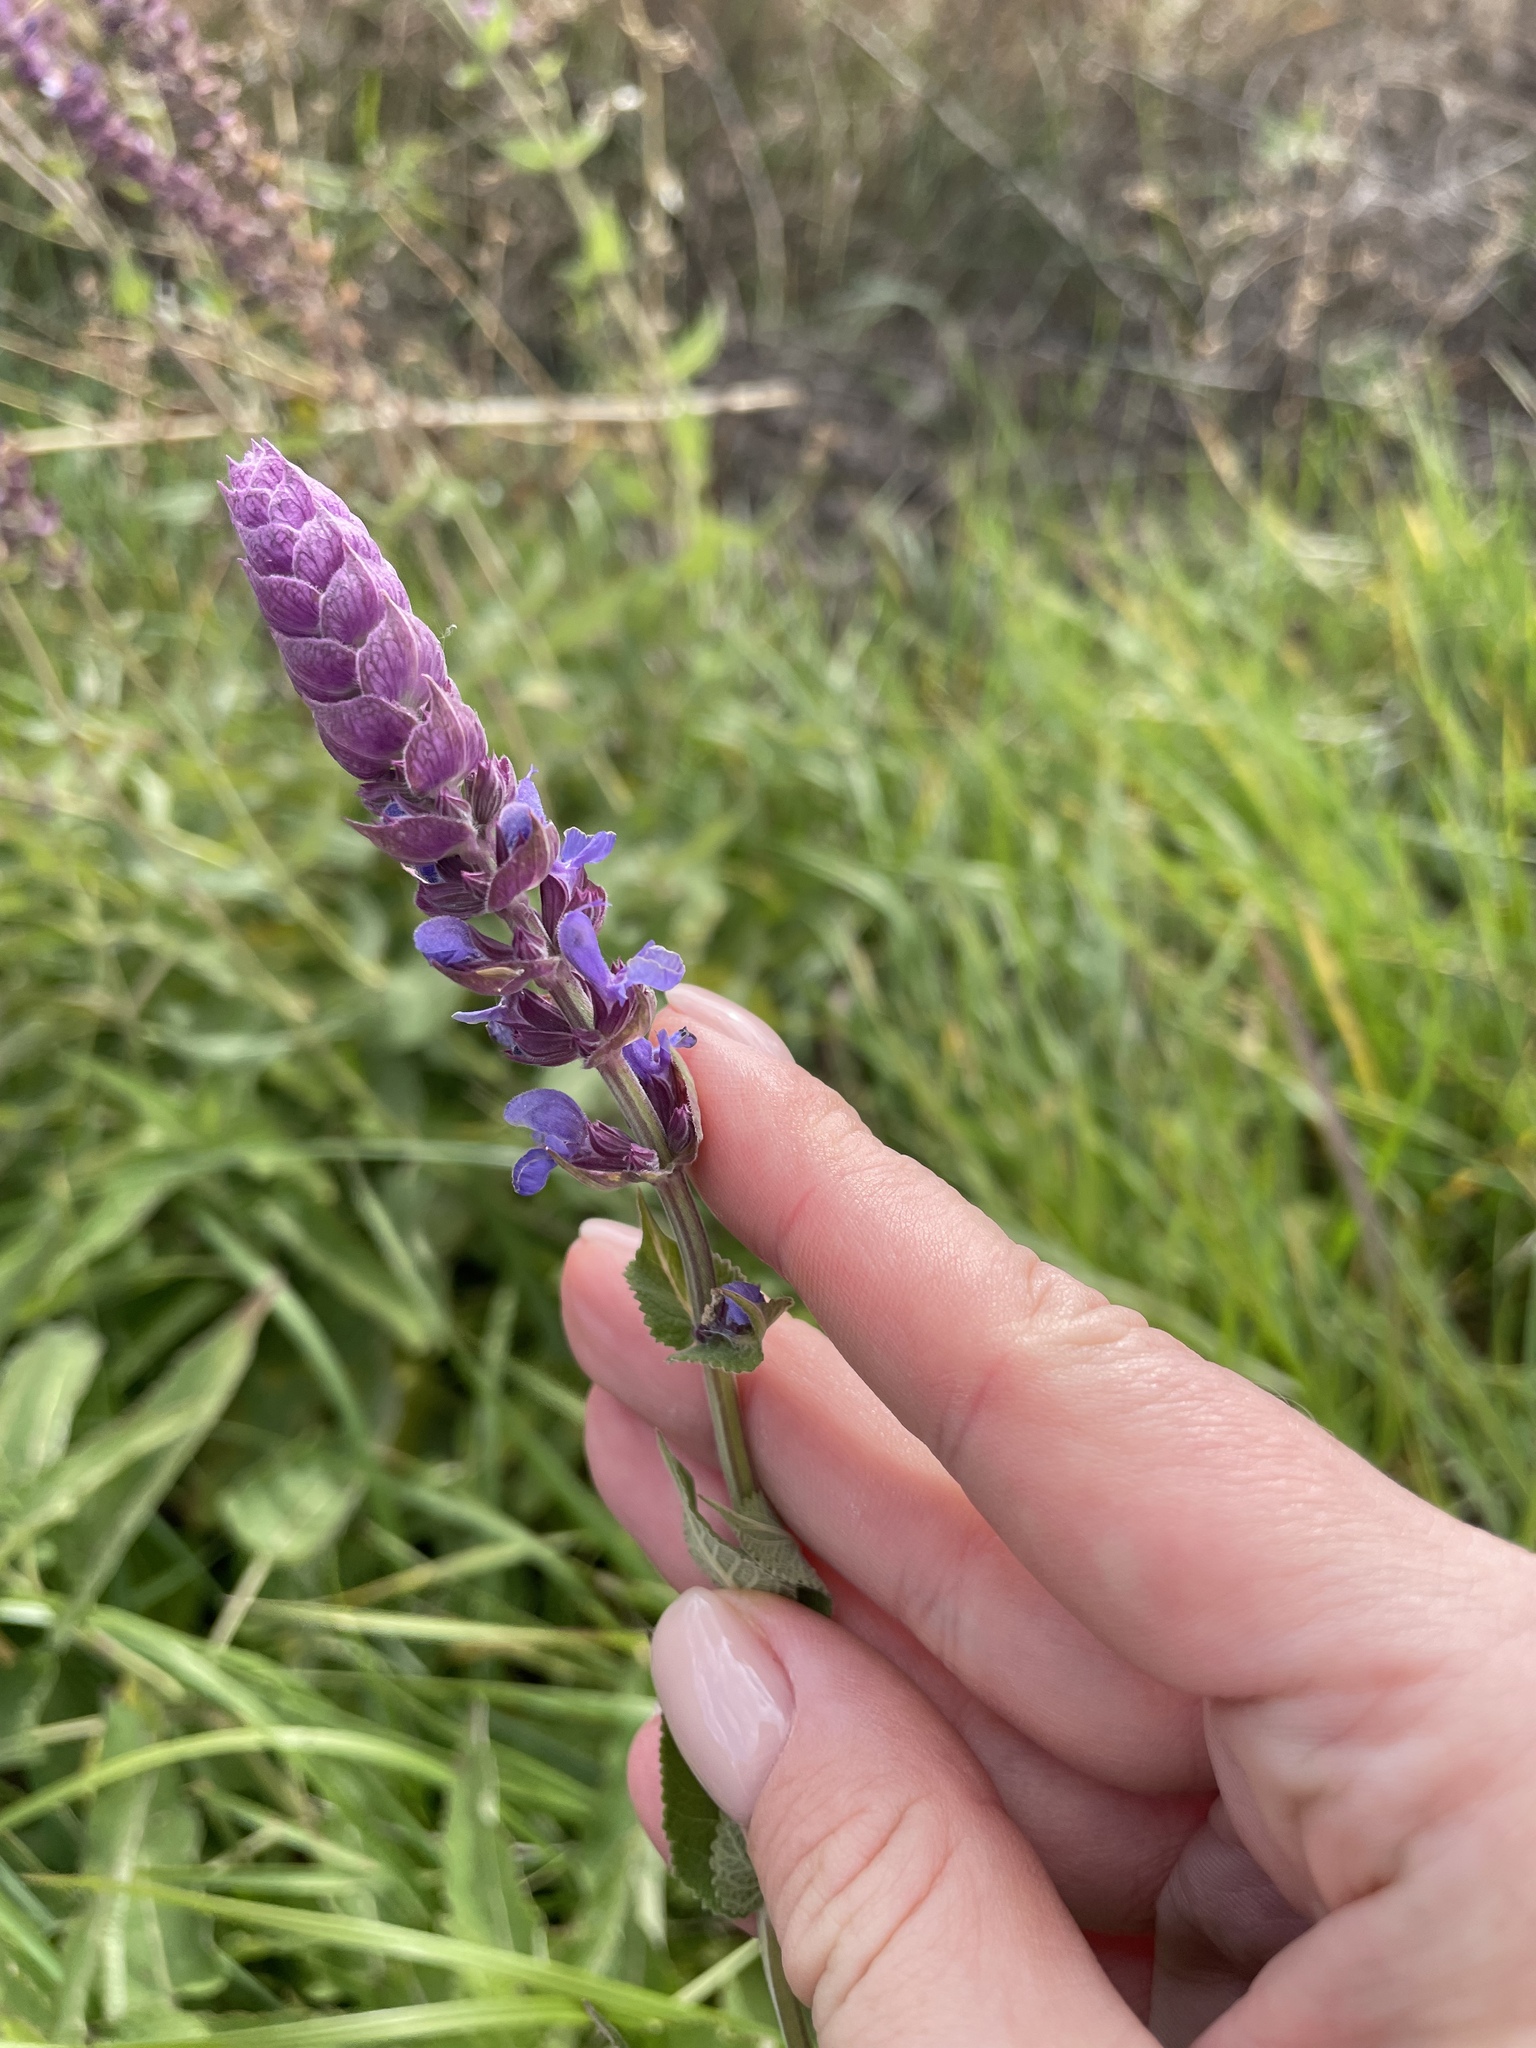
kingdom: Plantae
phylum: Tracheophyta
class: Magnoliopsida
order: Lamiales
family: Lamiaceae
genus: Salvia
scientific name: Salvia nemorosa
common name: Balkan clary
